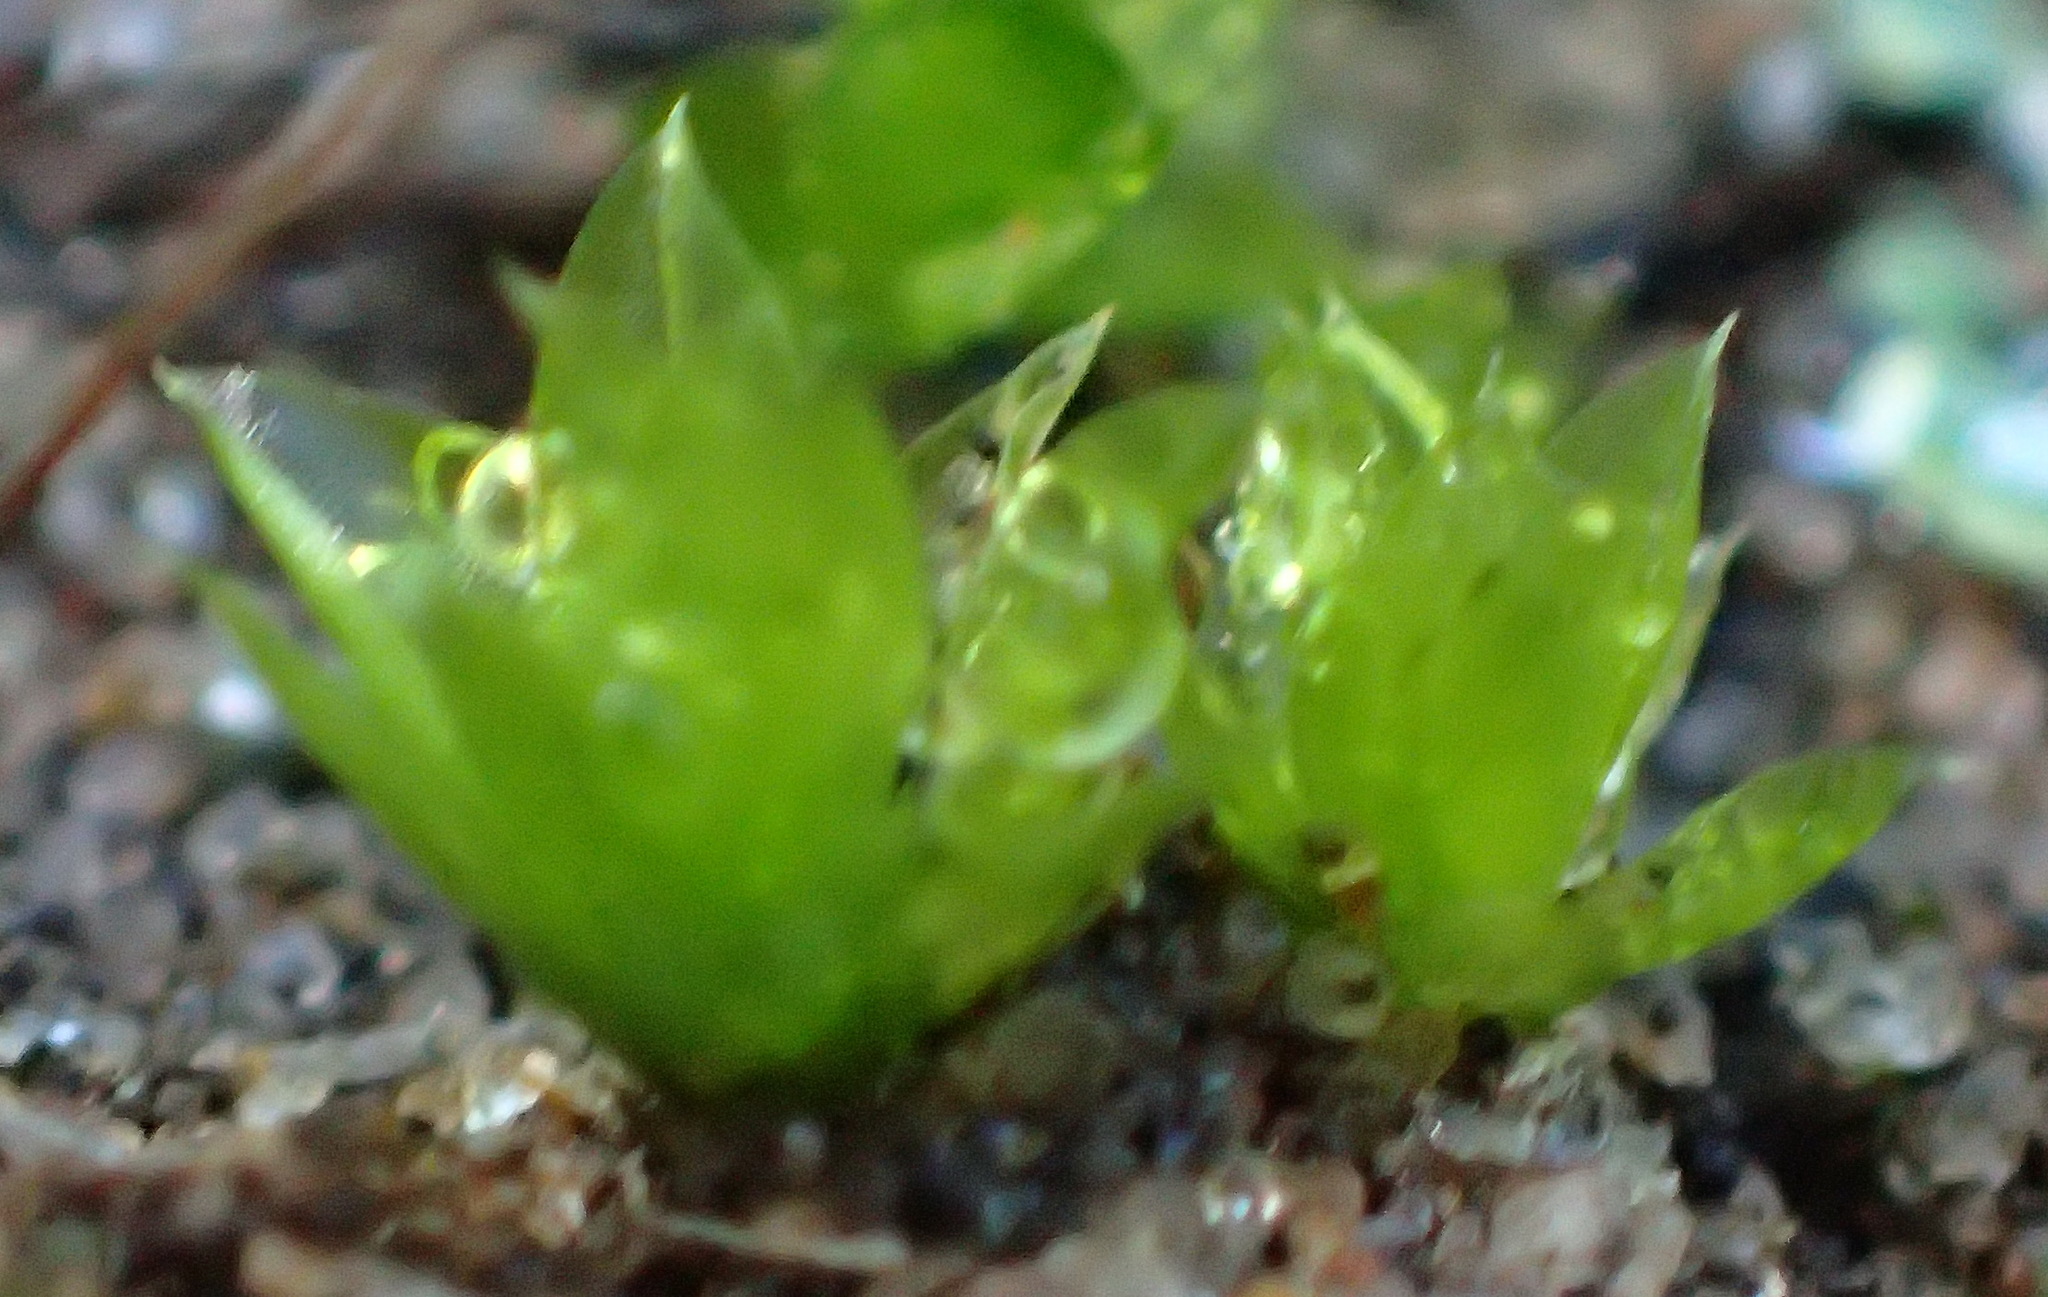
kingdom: Plantae
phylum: Bryophyta
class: Bryopsida
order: Bryales
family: Bryaceae
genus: Rosulabryum
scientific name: Rosulabryum canariense
